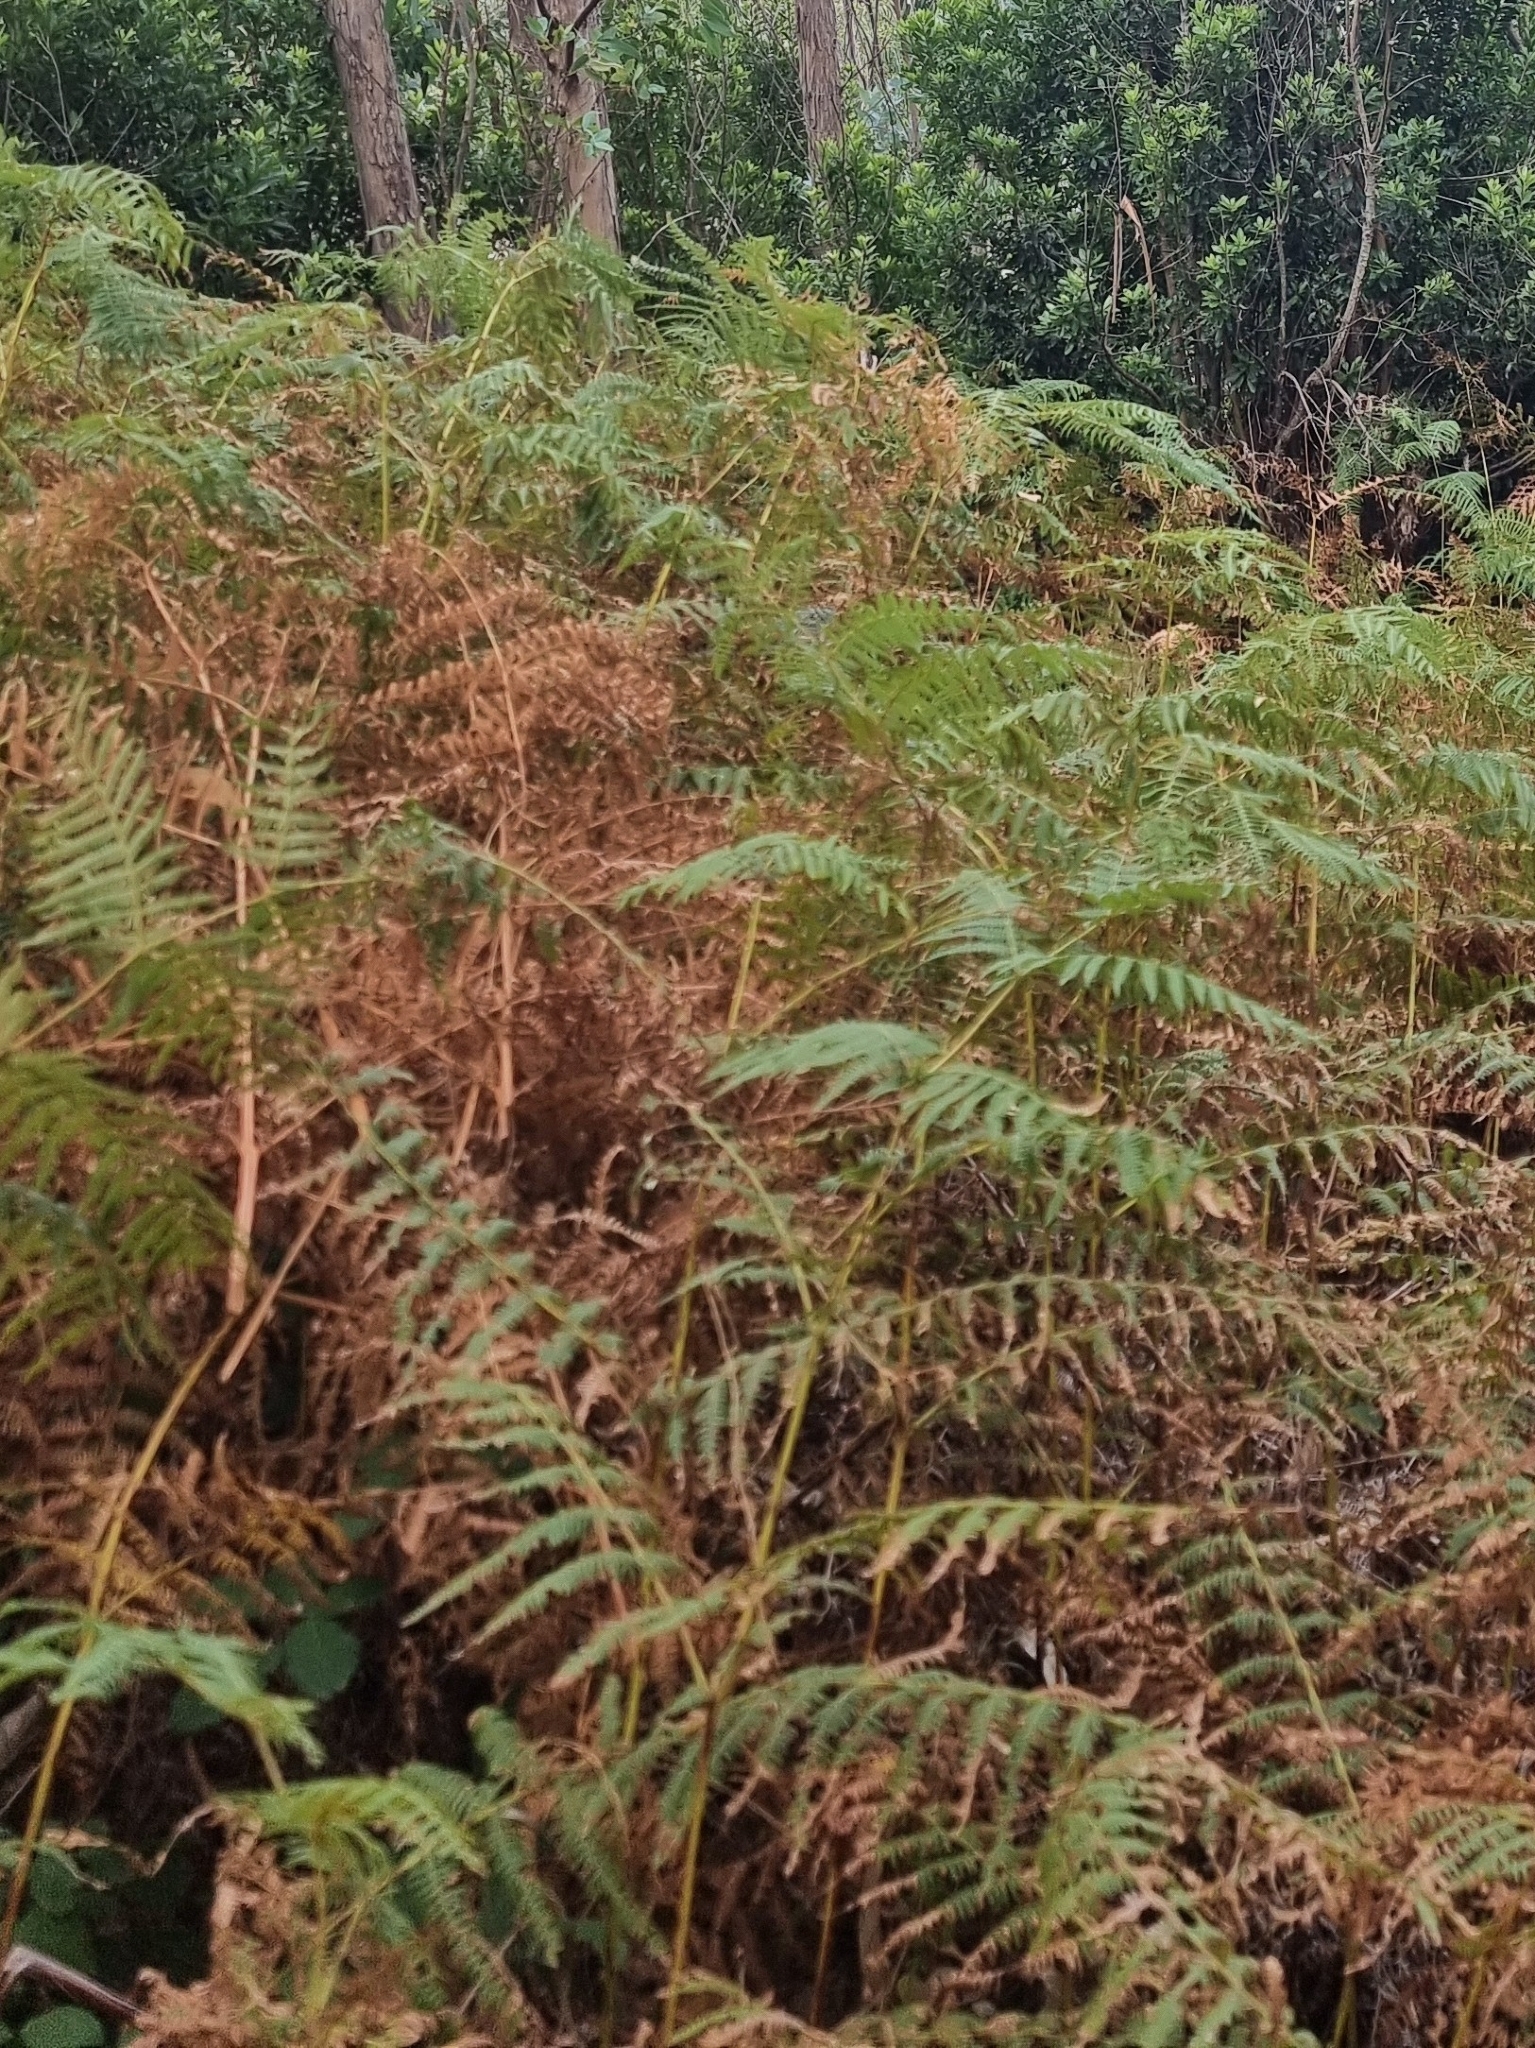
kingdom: Plantae
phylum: Tracheophyta
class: Polypodiopsida
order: Polypodiales
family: Dennstaedtiaceae
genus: Pteridium
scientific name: Pteridium aquilinum
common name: Bracken
